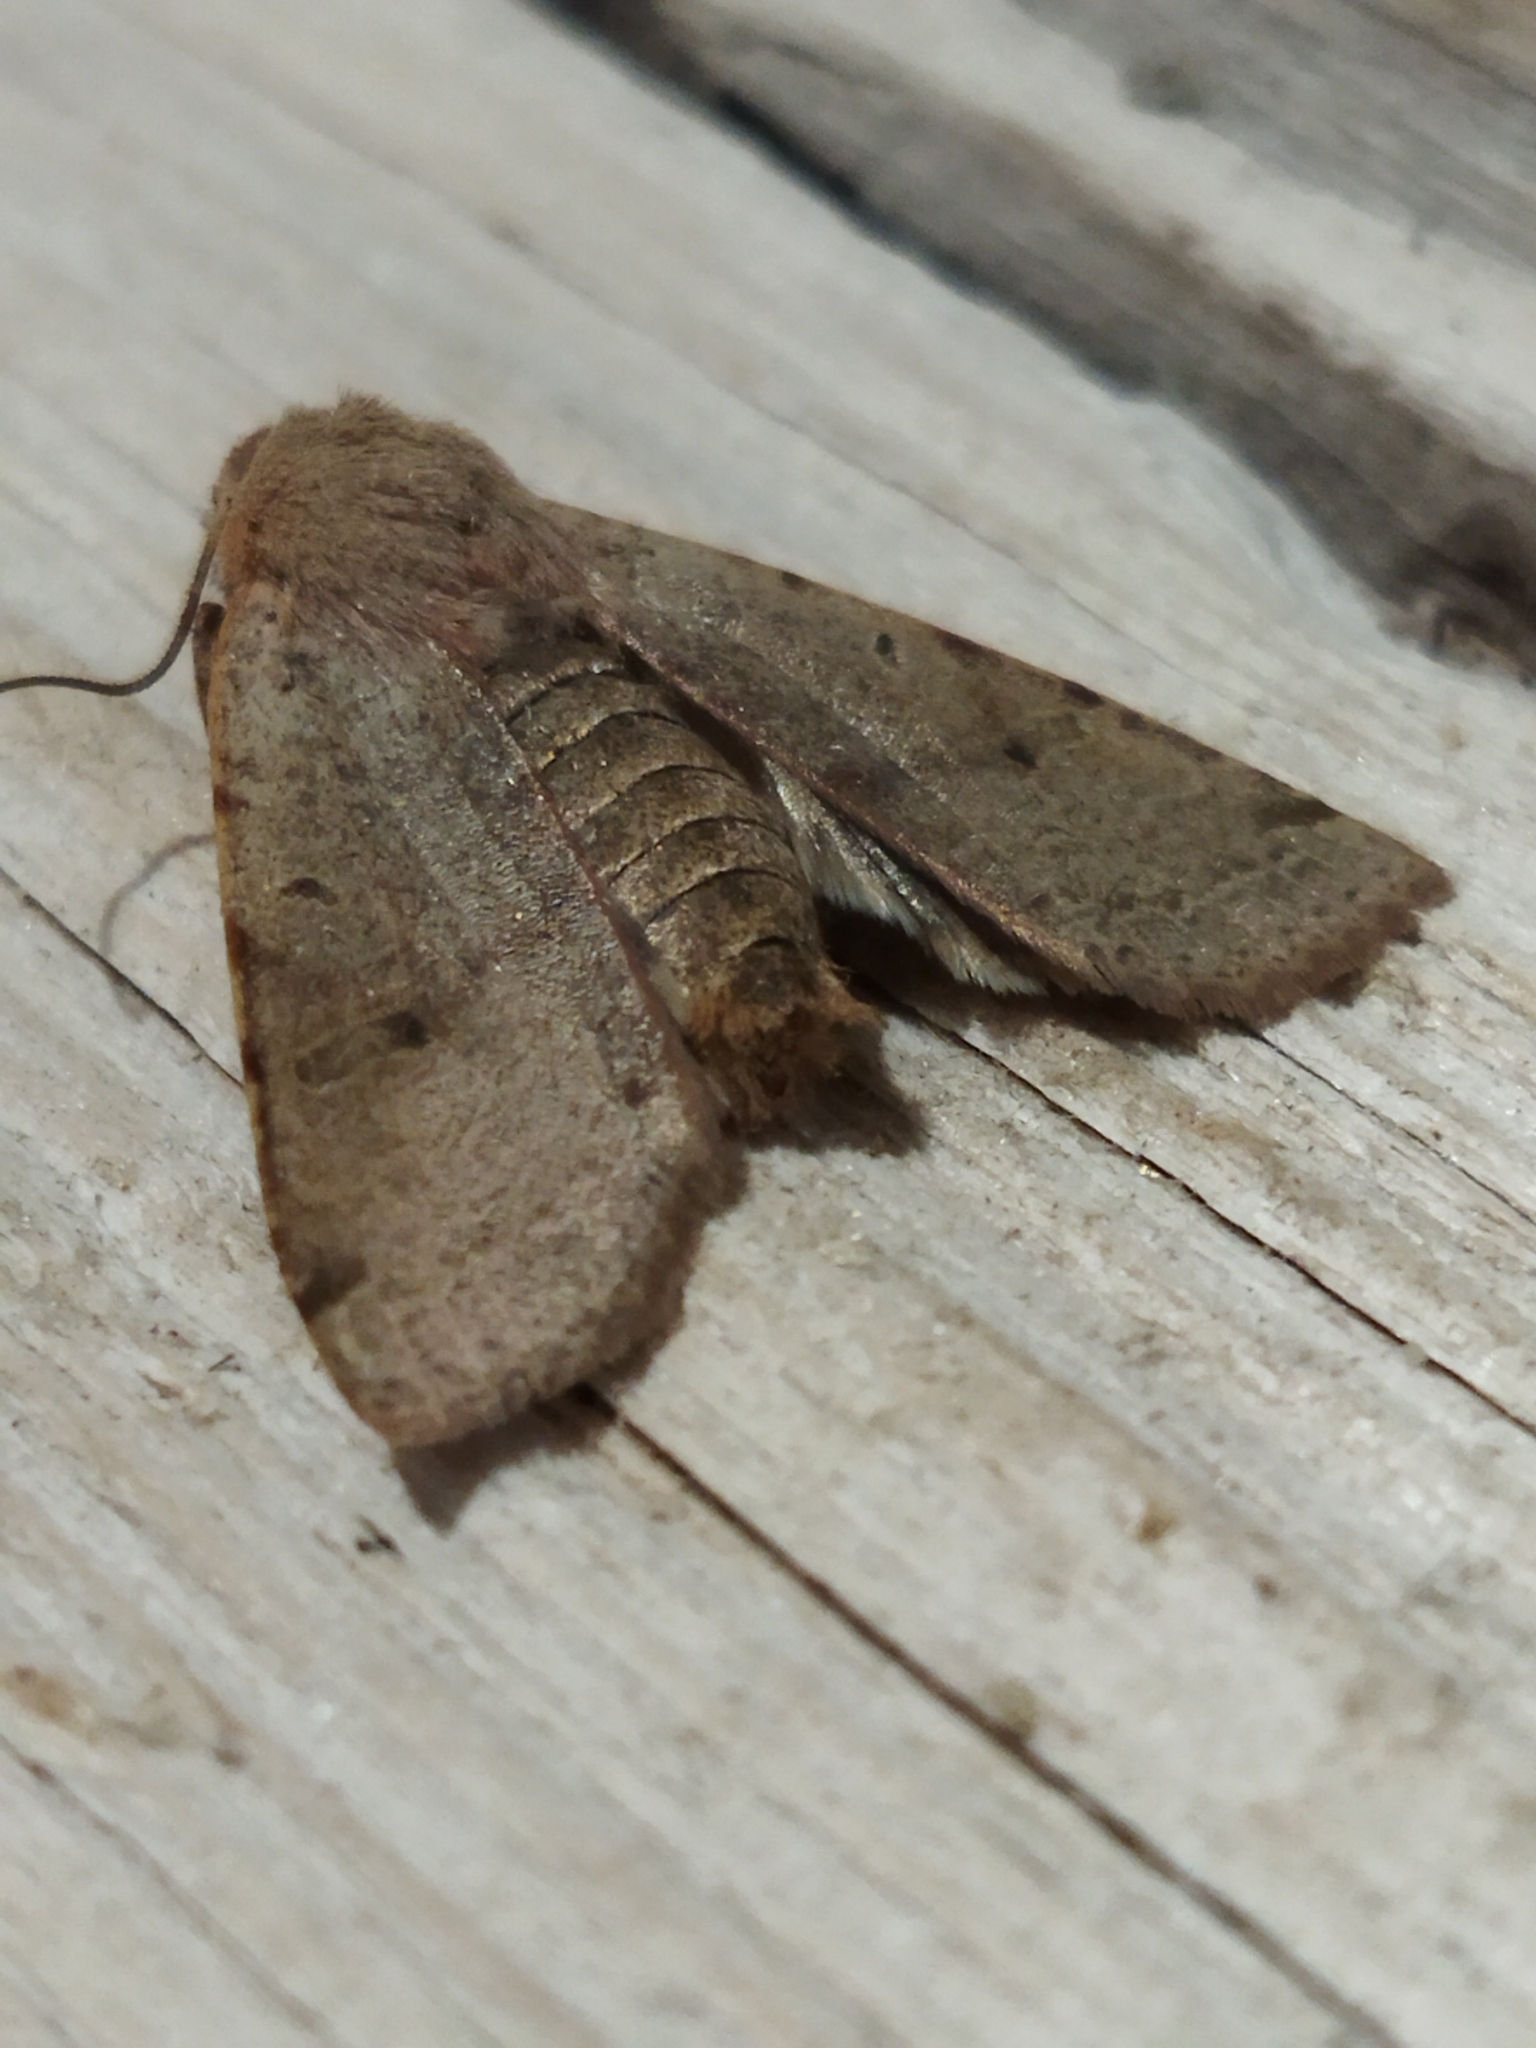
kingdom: Animalia
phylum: Arthropoda
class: Insecta
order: Lepidoptera
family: Noctuidae
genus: Agrochola
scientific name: Agrochola lychnidis
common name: Beaded chestnut
